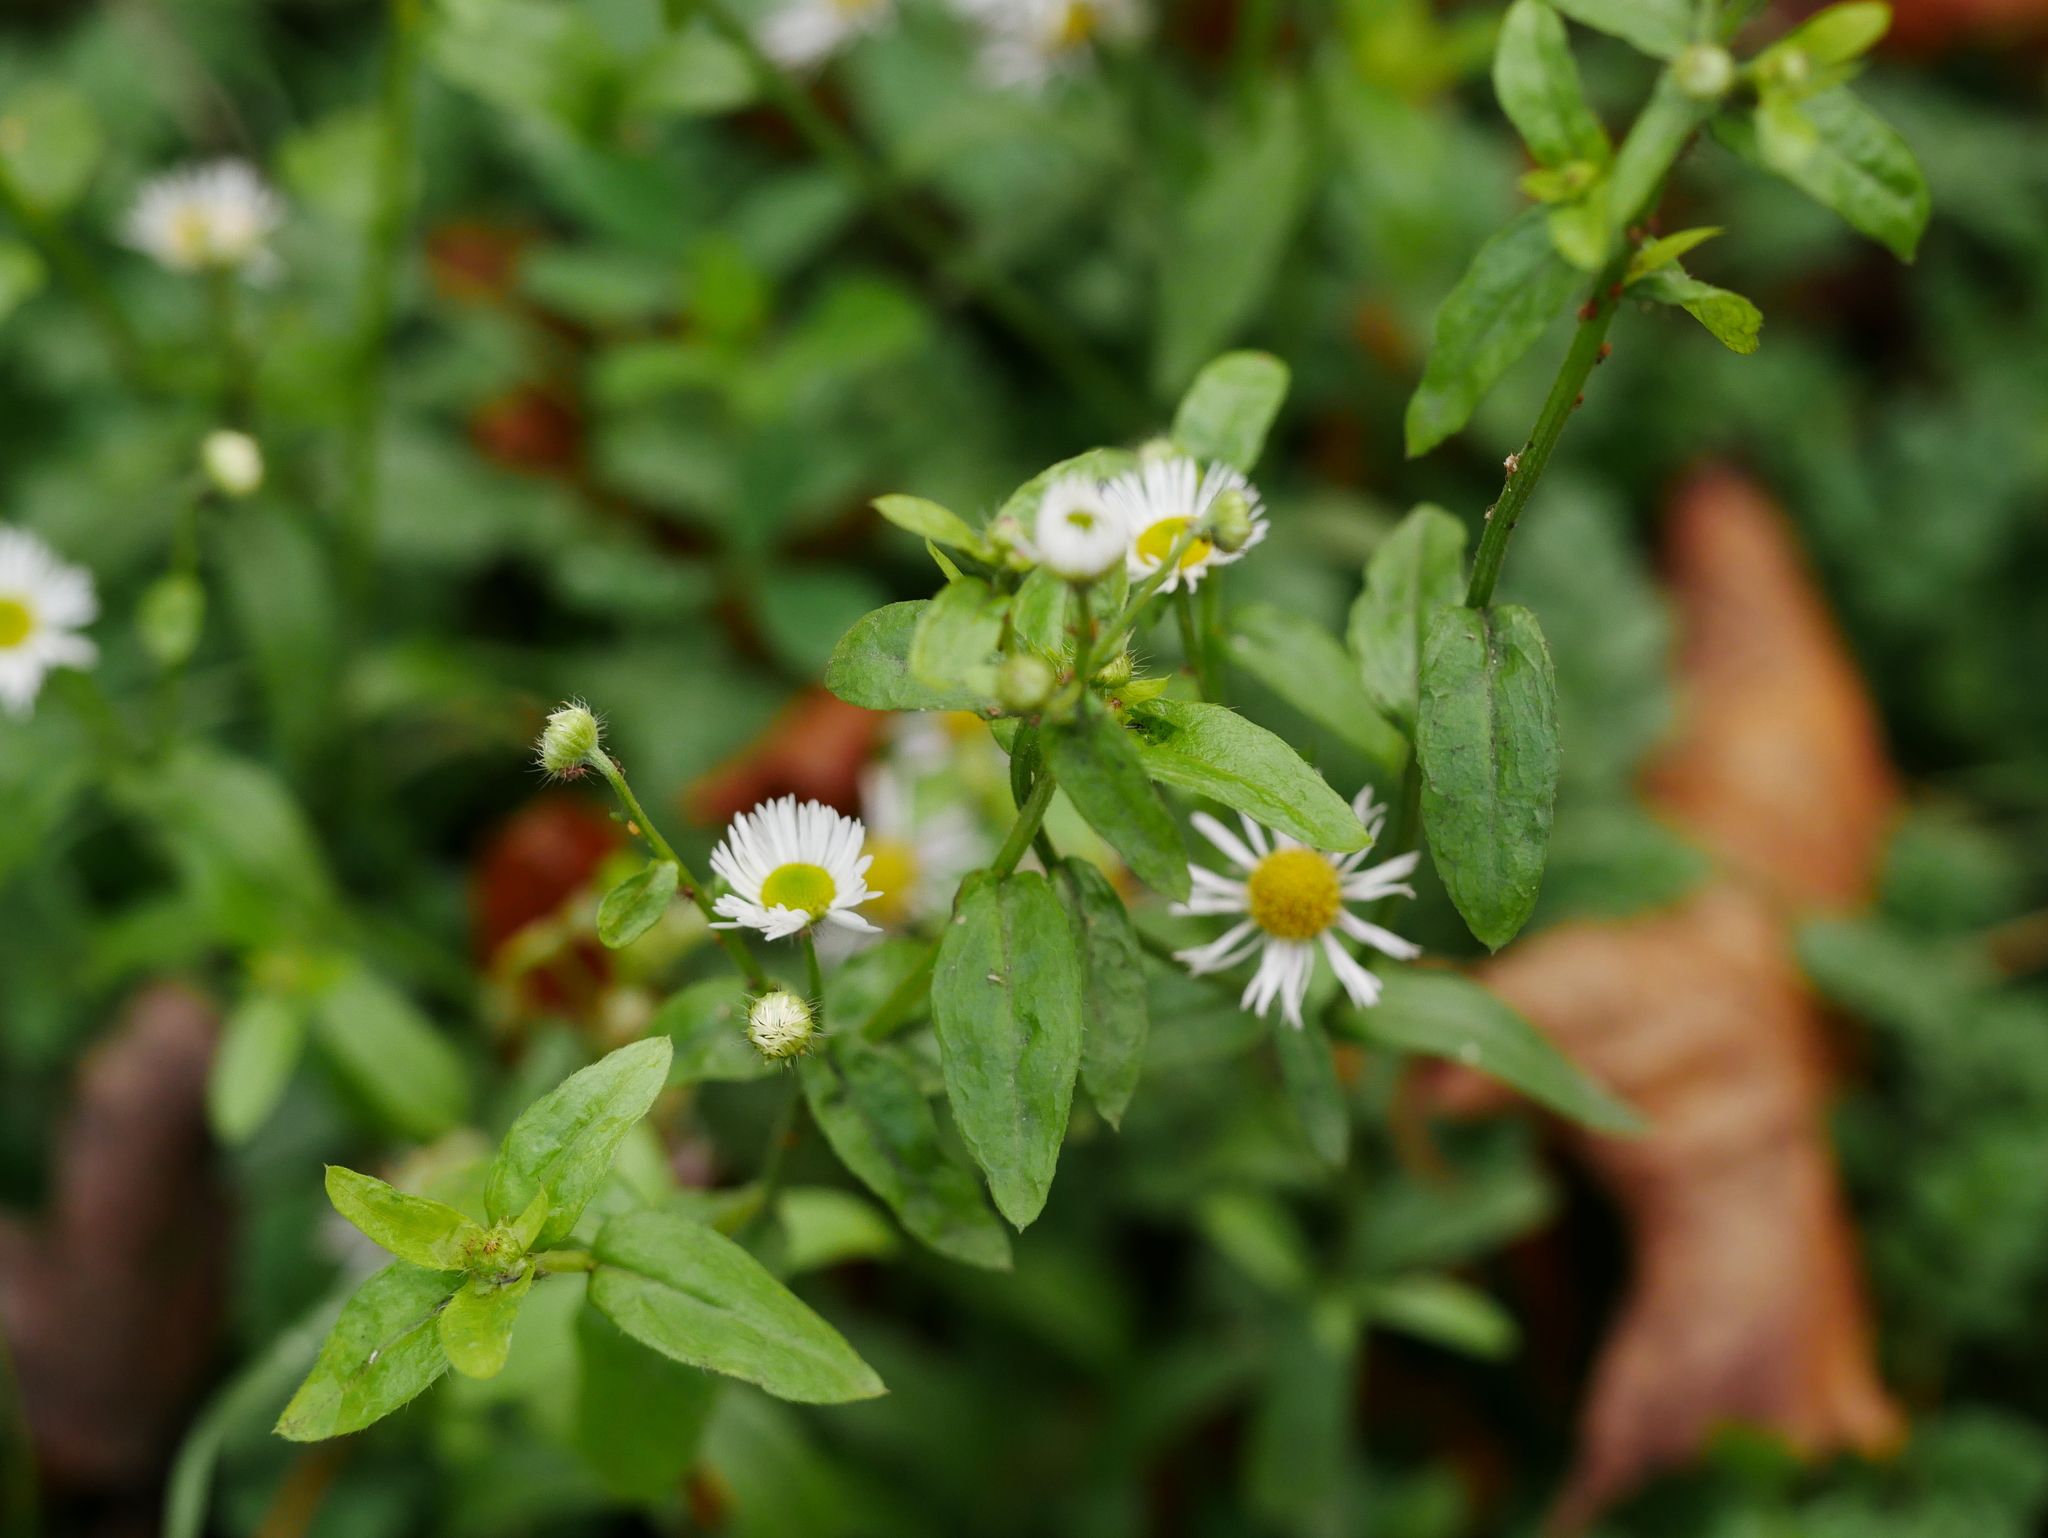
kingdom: Plantae
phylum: Tracheophyta
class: Magnoliopsida
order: Asterales
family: Asteraceae
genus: Erigeron
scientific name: Erigeron annuus
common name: Tall fleabane
